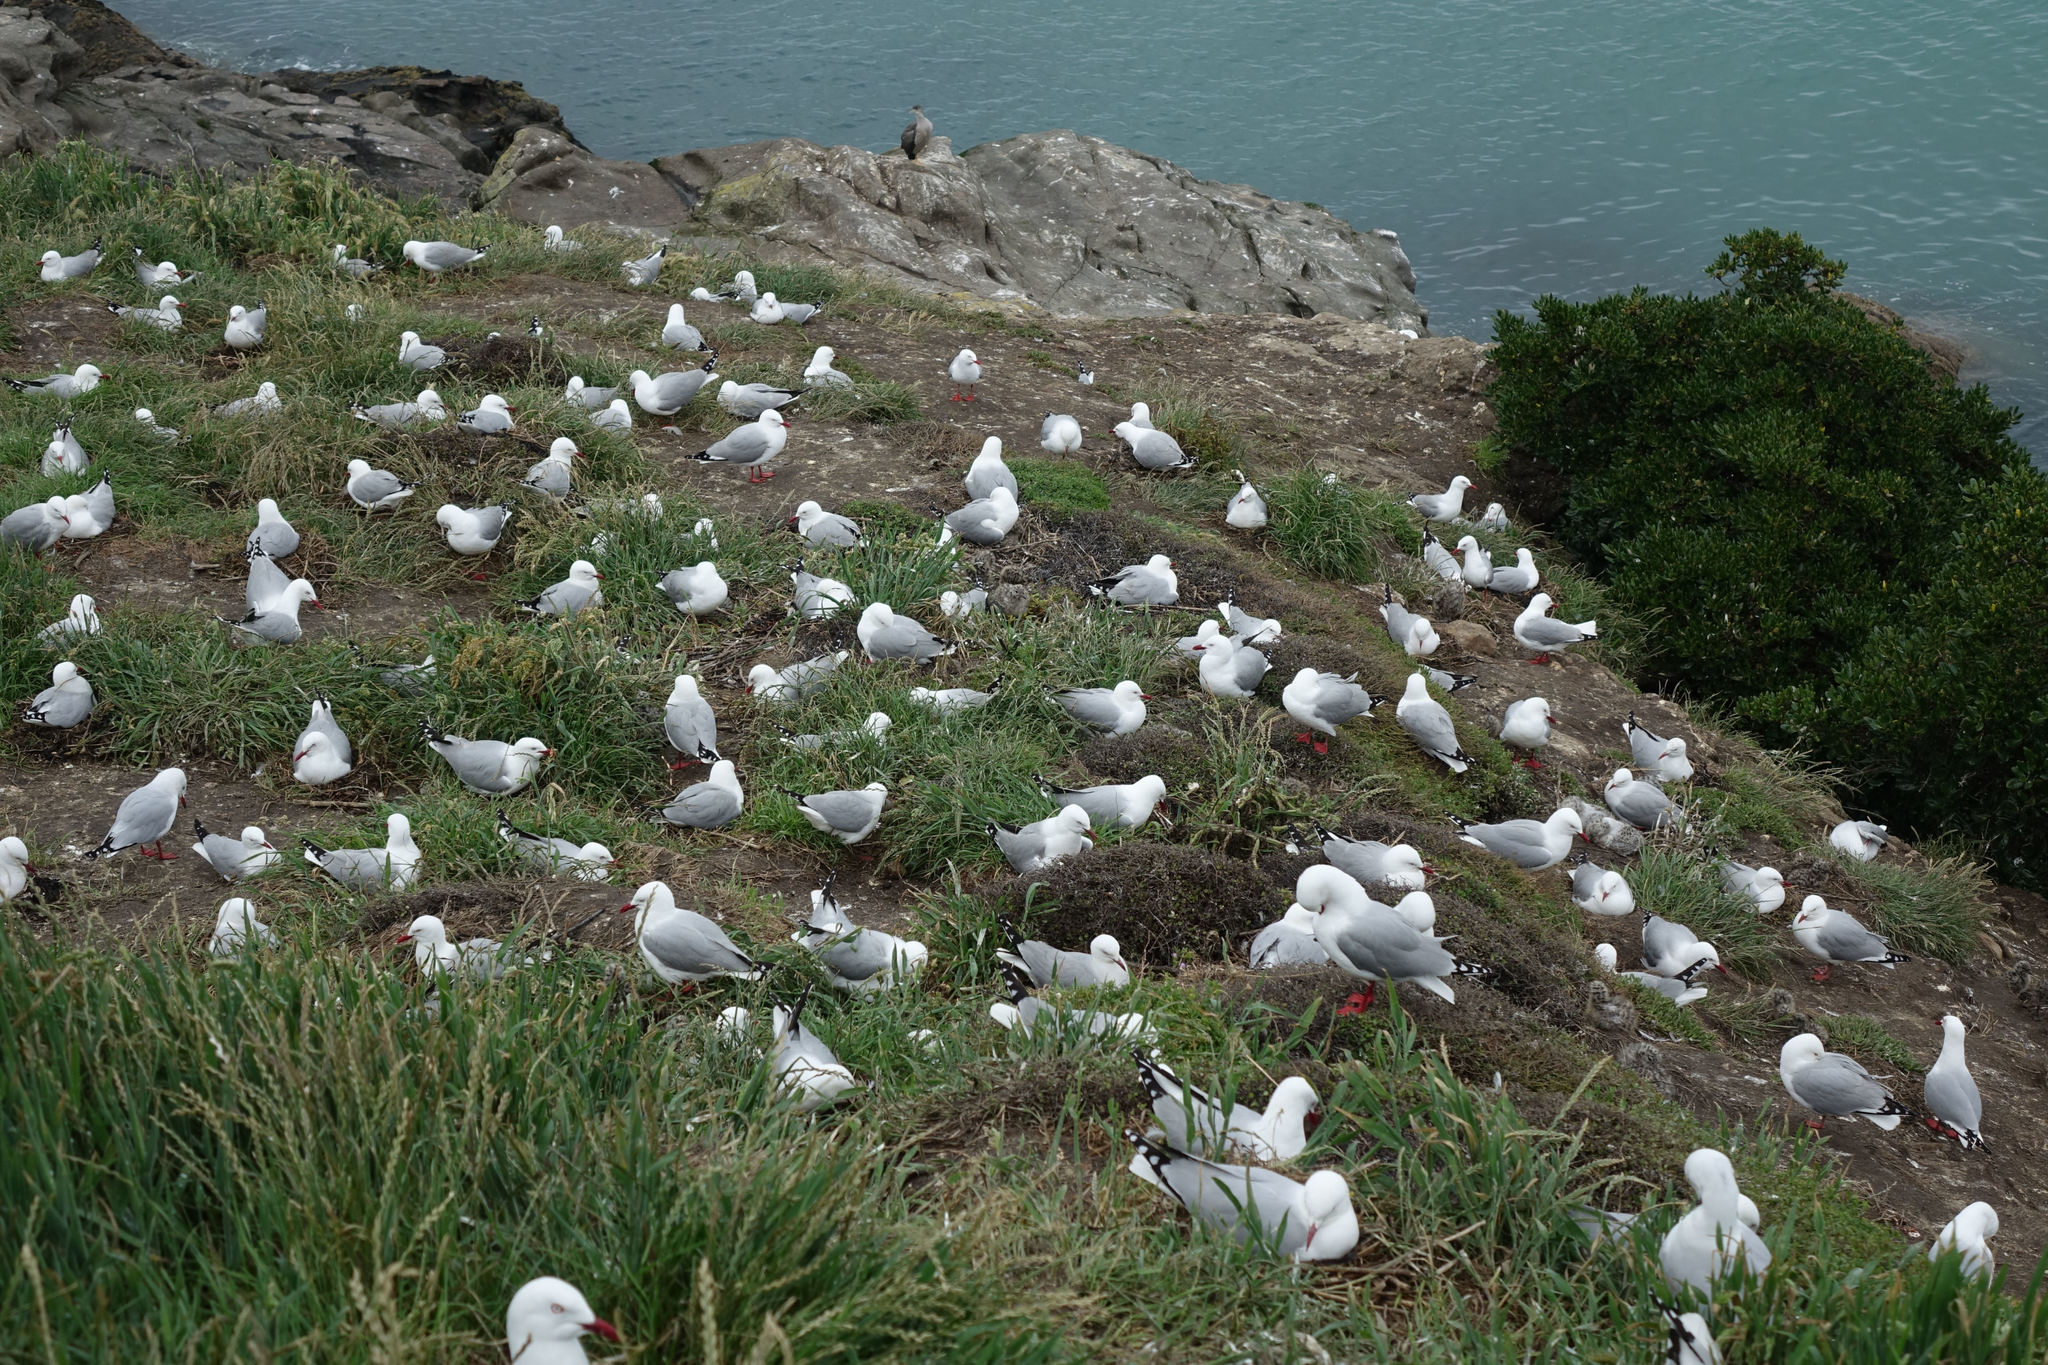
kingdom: Animalia
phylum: Chordata
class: Aves
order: Charadriiformes
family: Laridae
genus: Chroicocephalus
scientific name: Chroicocephalus novaehollandiae
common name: Silver gull
